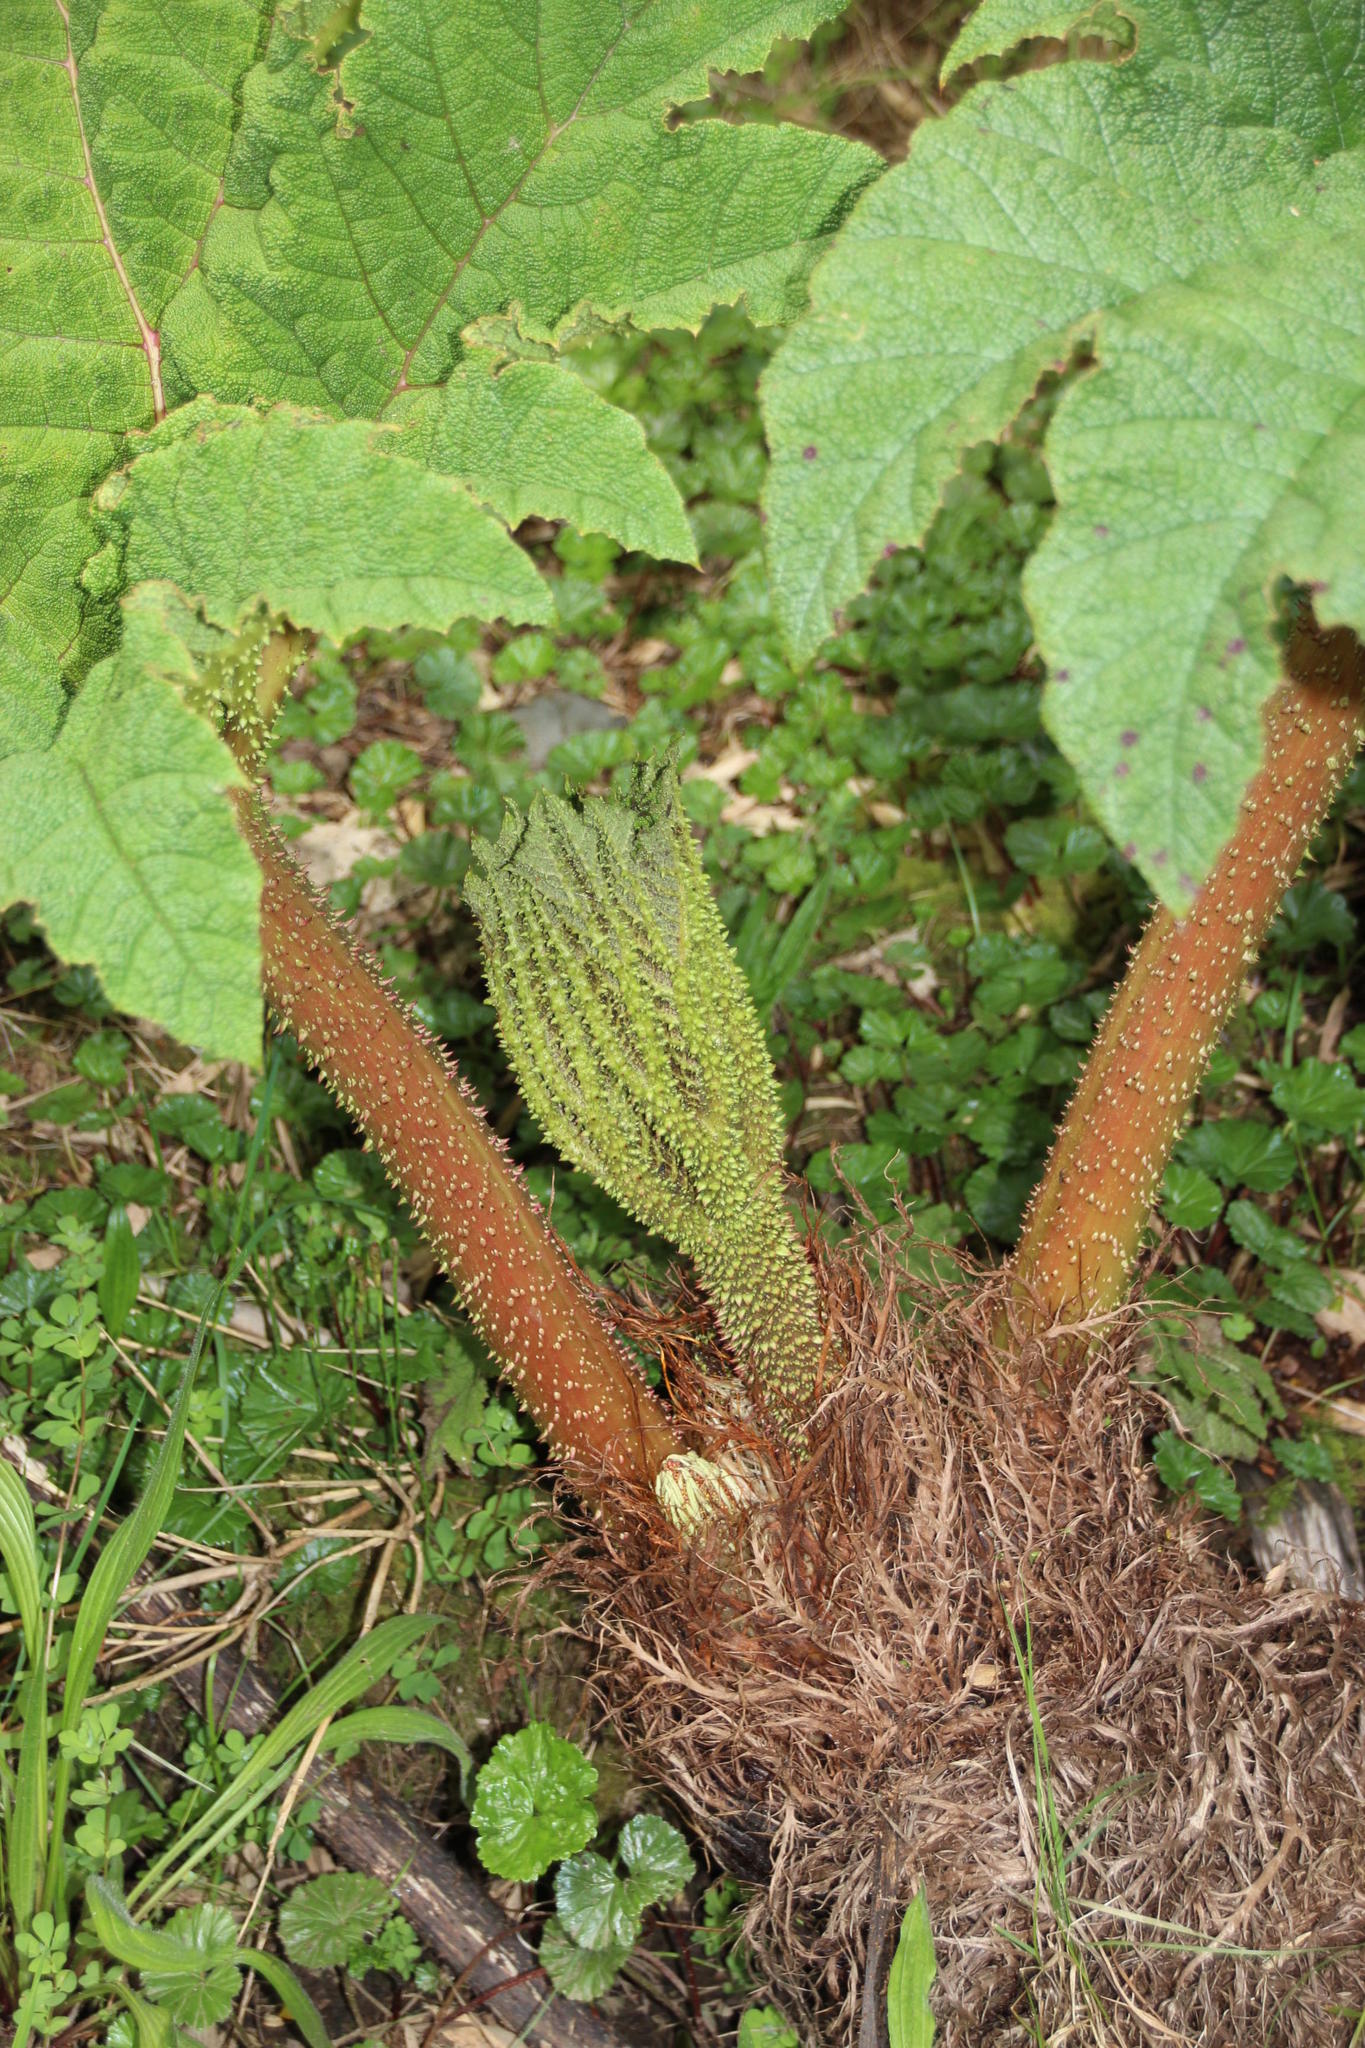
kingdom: Plantae
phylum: Tracheophyta
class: Magnoliopsida
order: Gunnerales
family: Gunneraceae
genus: Gunnera
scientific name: Gunnera tinctoria
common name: Giant-rhubarb
